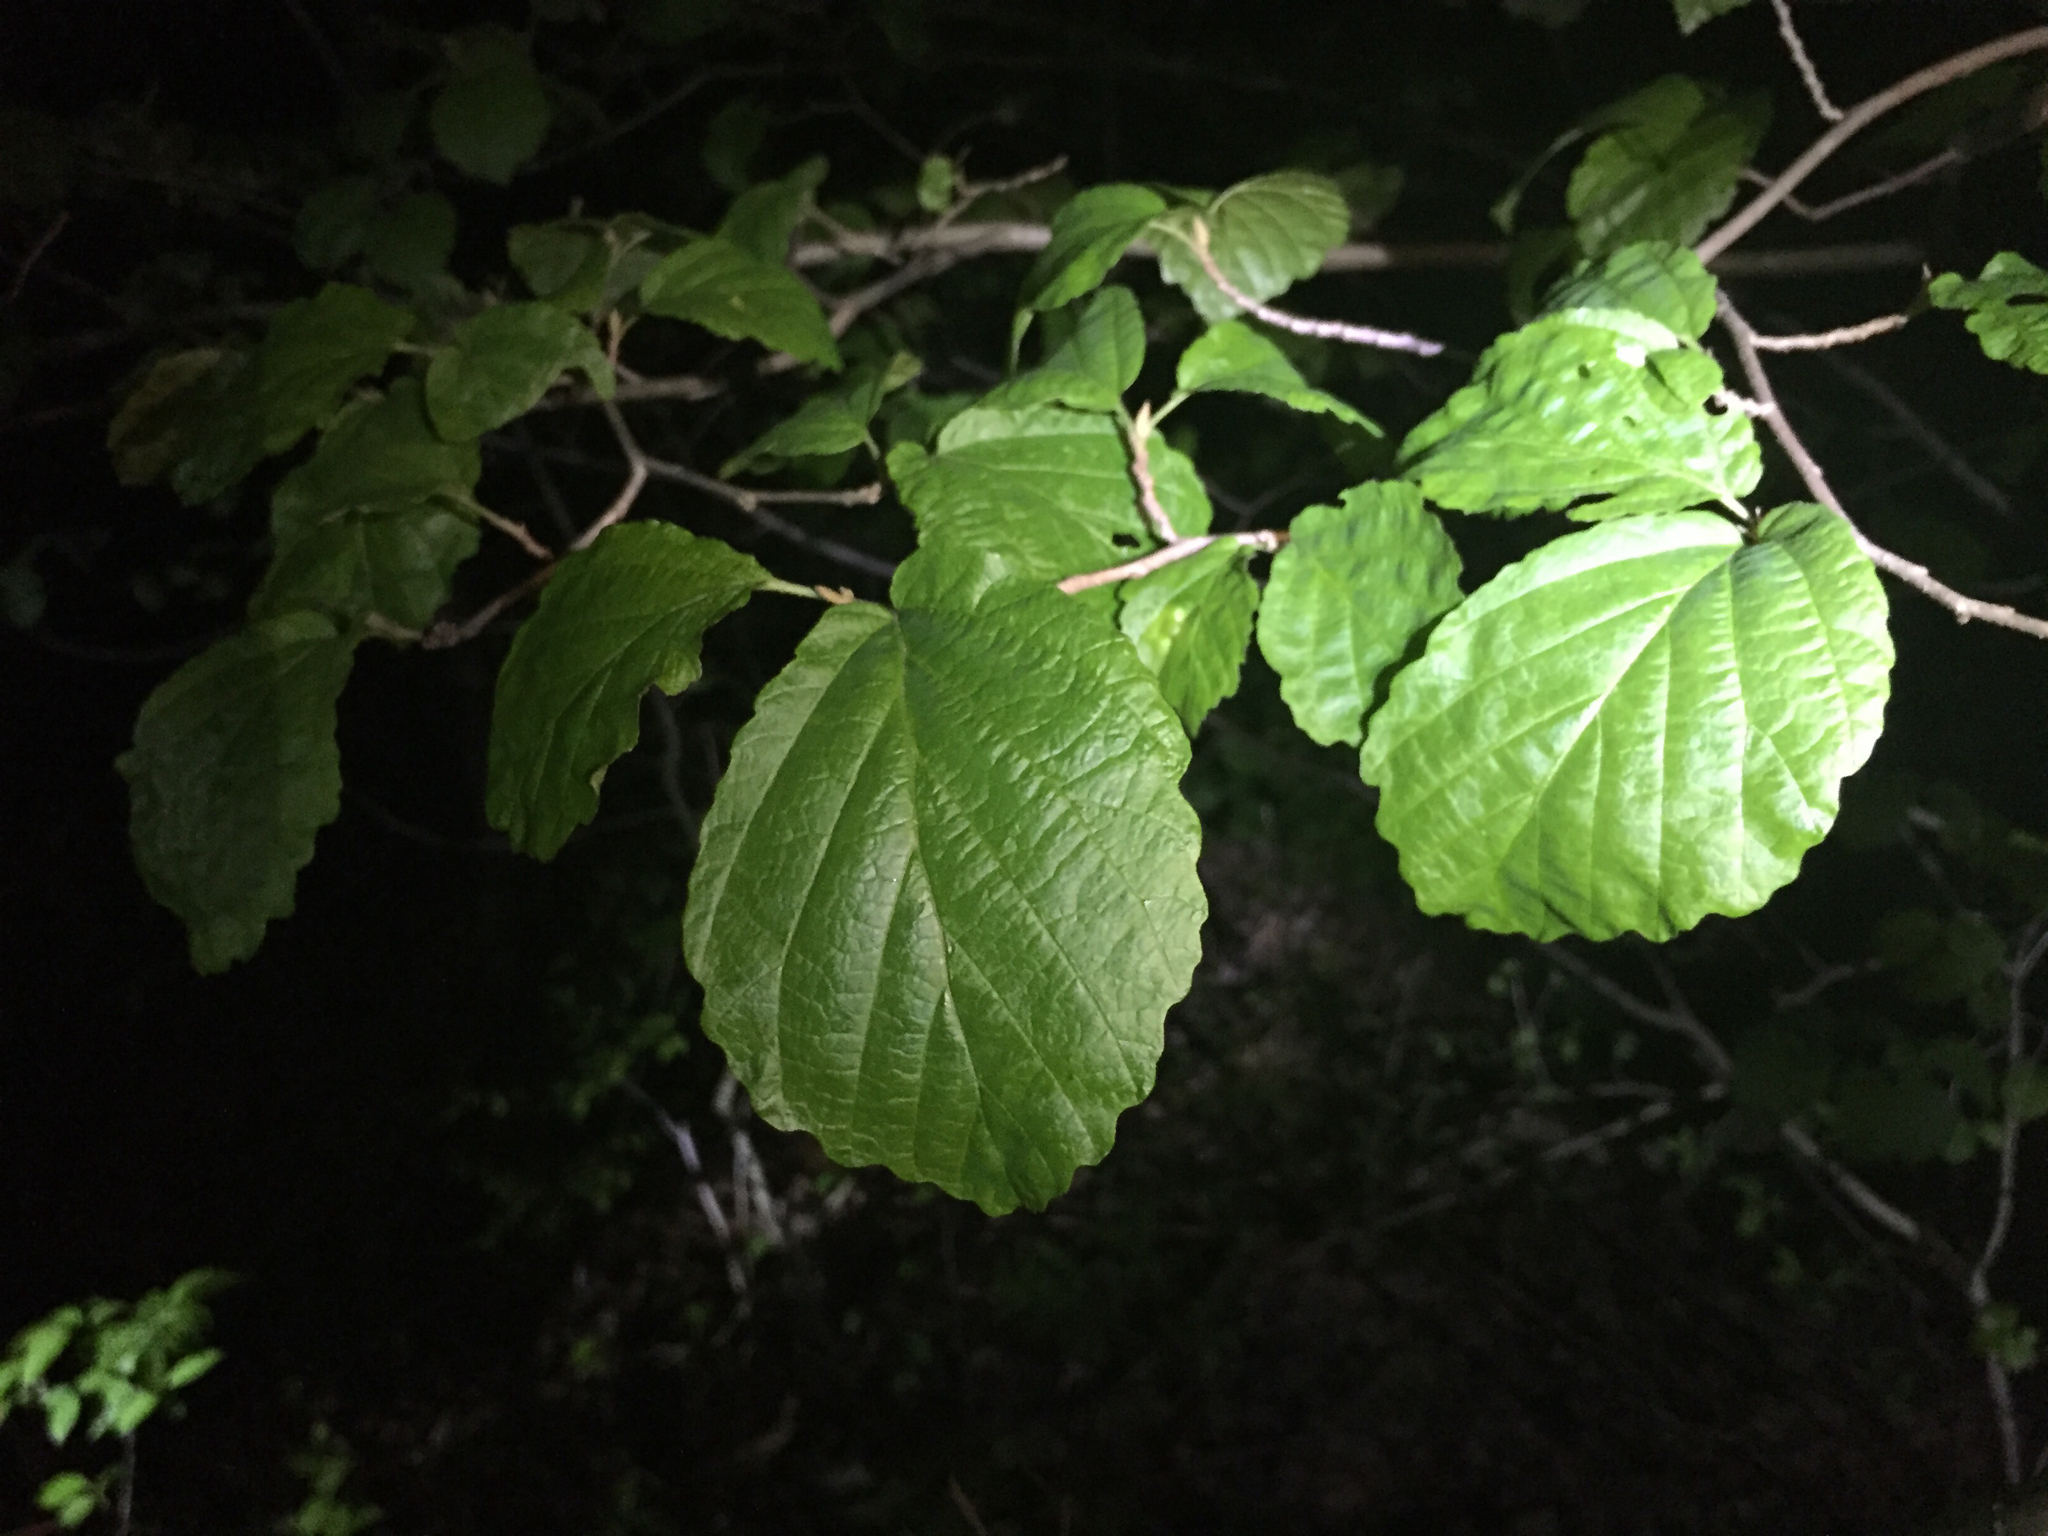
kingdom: Plantae
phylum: Tracheophyta
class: Magnoliopsida
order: Saxifragales
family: Hamamelidaceae
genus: Hamamelis
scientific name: Hamamelis virginiana
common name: Witch-hazel
